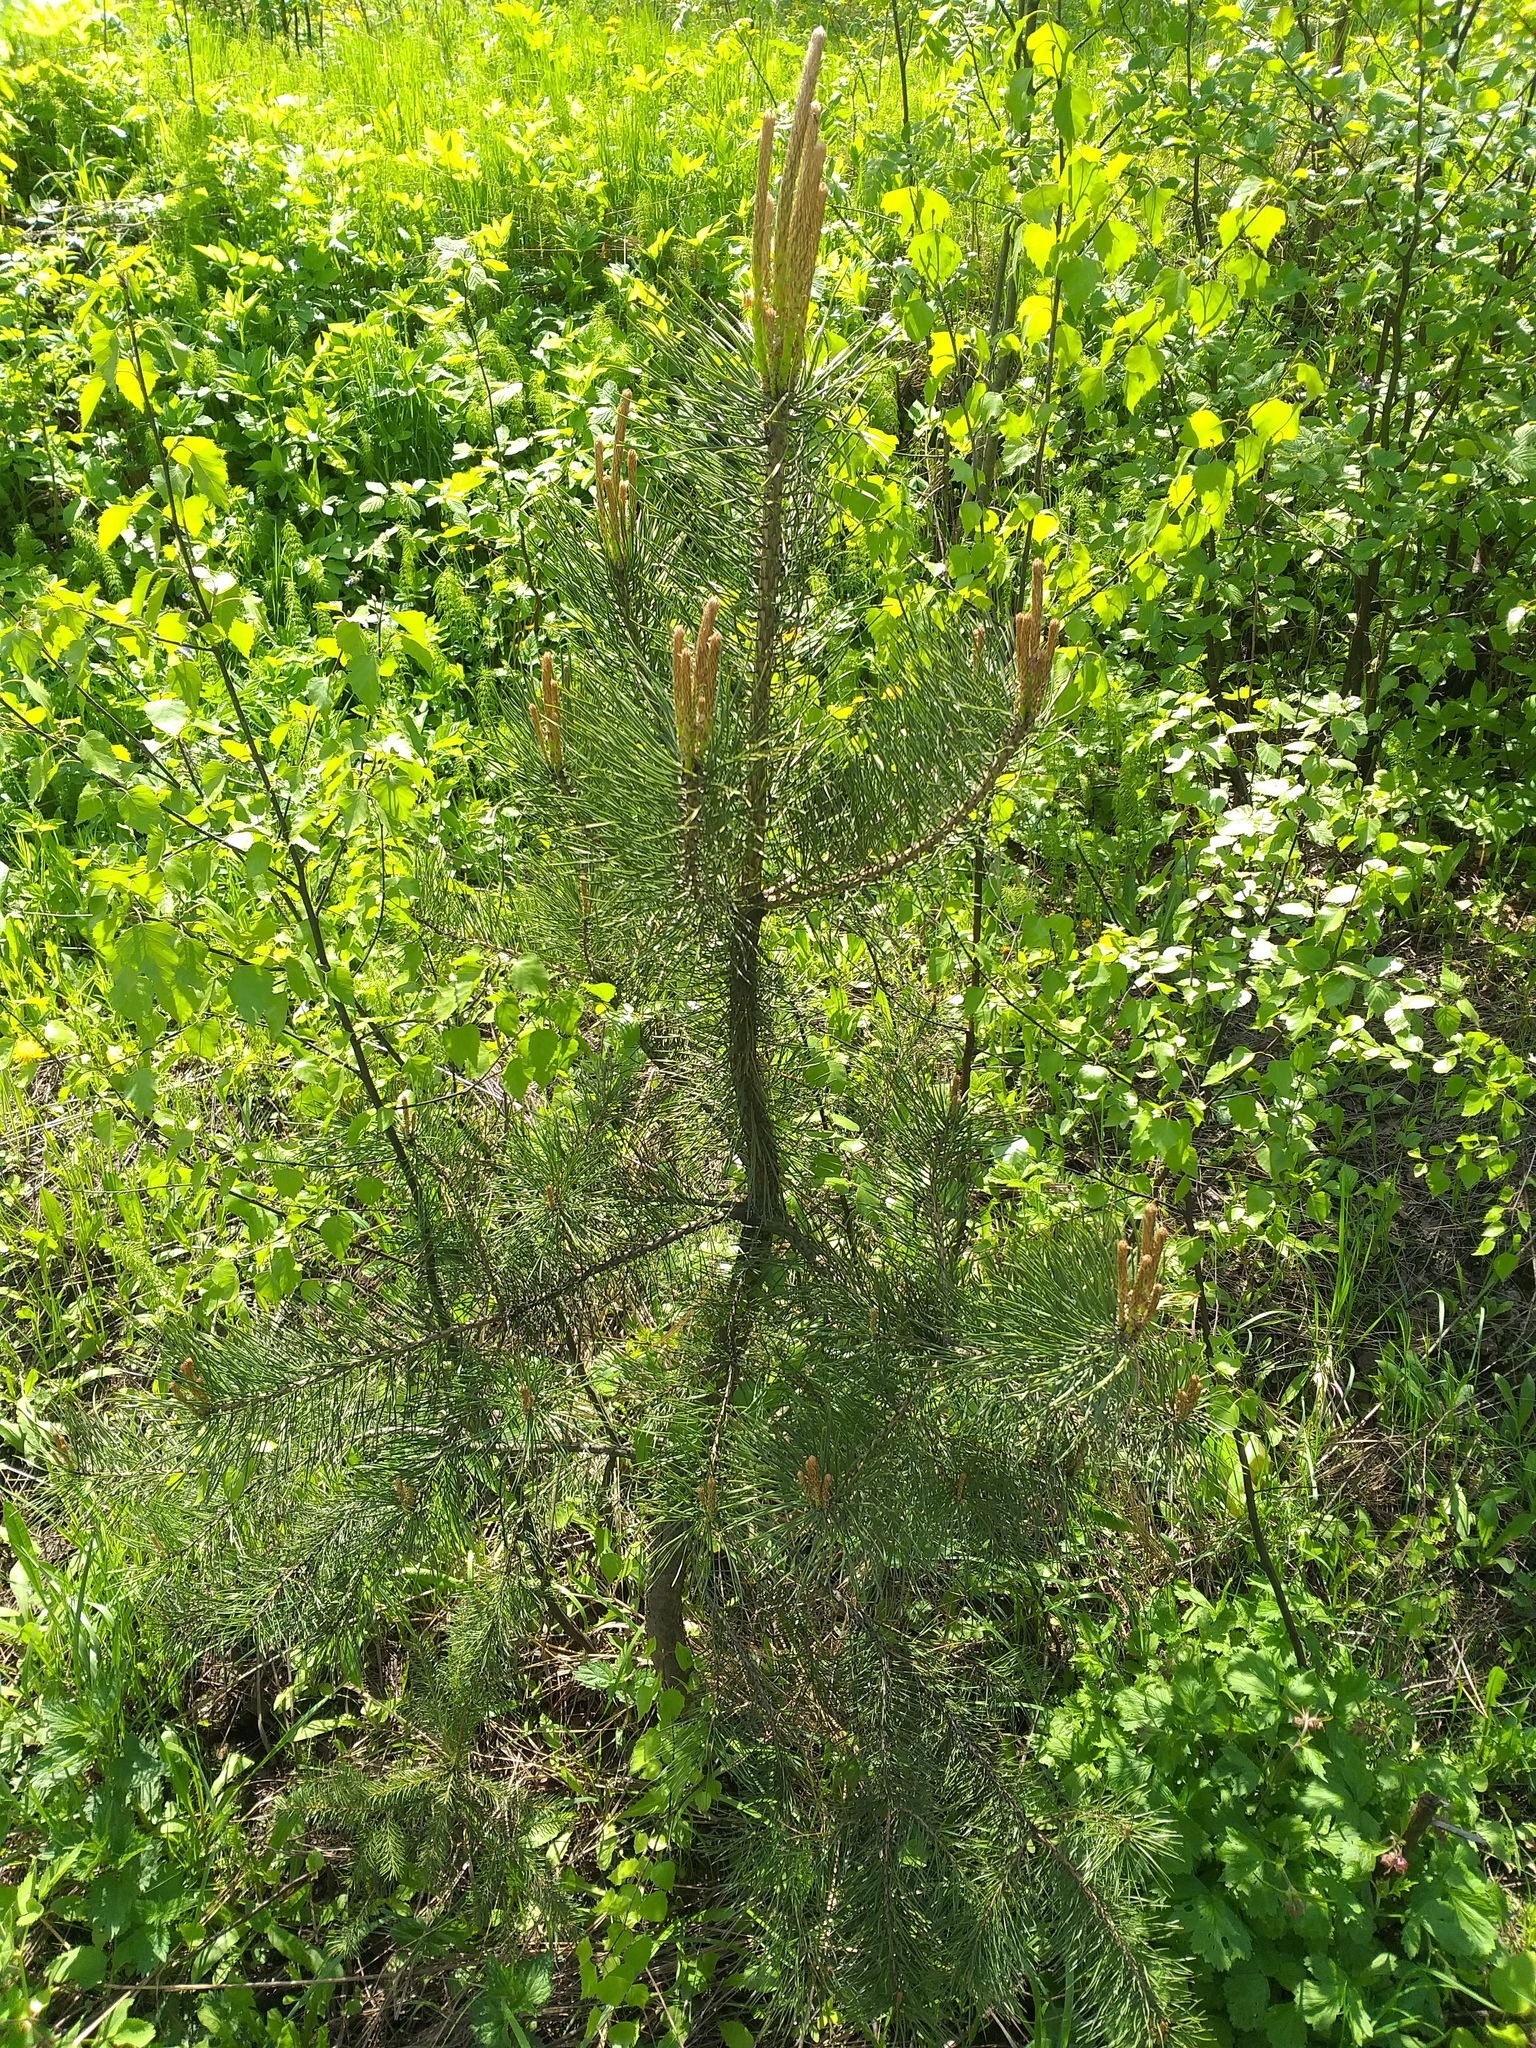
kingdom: Plantae
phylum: Tracheophyta
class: Pinopsida
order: Pinales
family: Pinaceae
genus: Pinus
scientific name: Pinus sylvestris
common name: Scots pine
